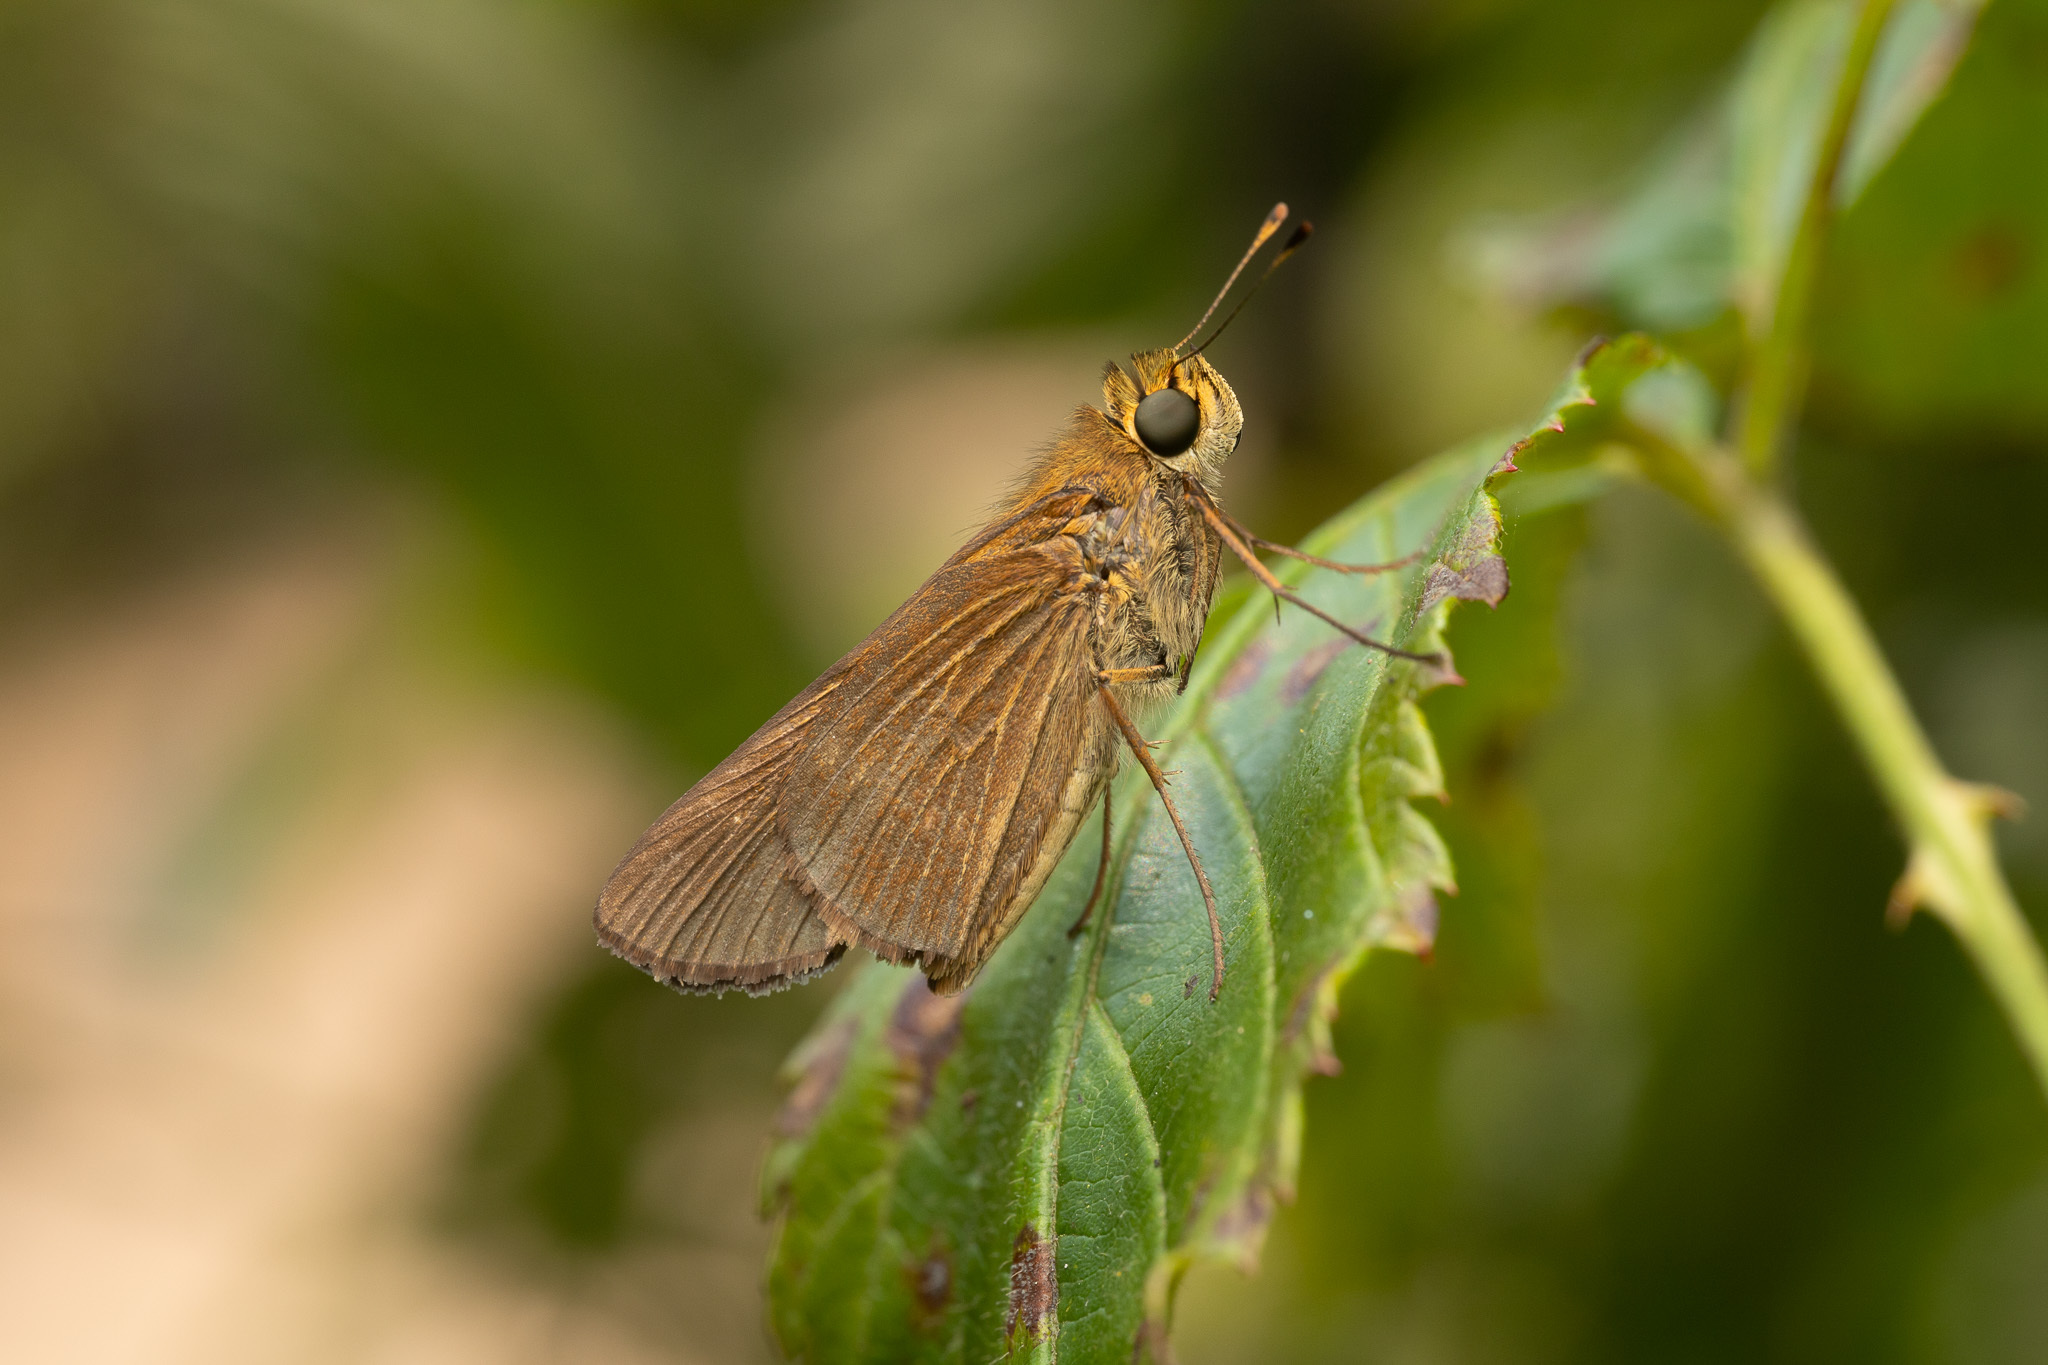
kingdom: Animalia
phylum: Arthropoda
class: Insecta
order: Lepidoptera
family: Hesperiidae
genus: Panoquina
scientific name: Panoquina ocola
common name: Ocola skipper
